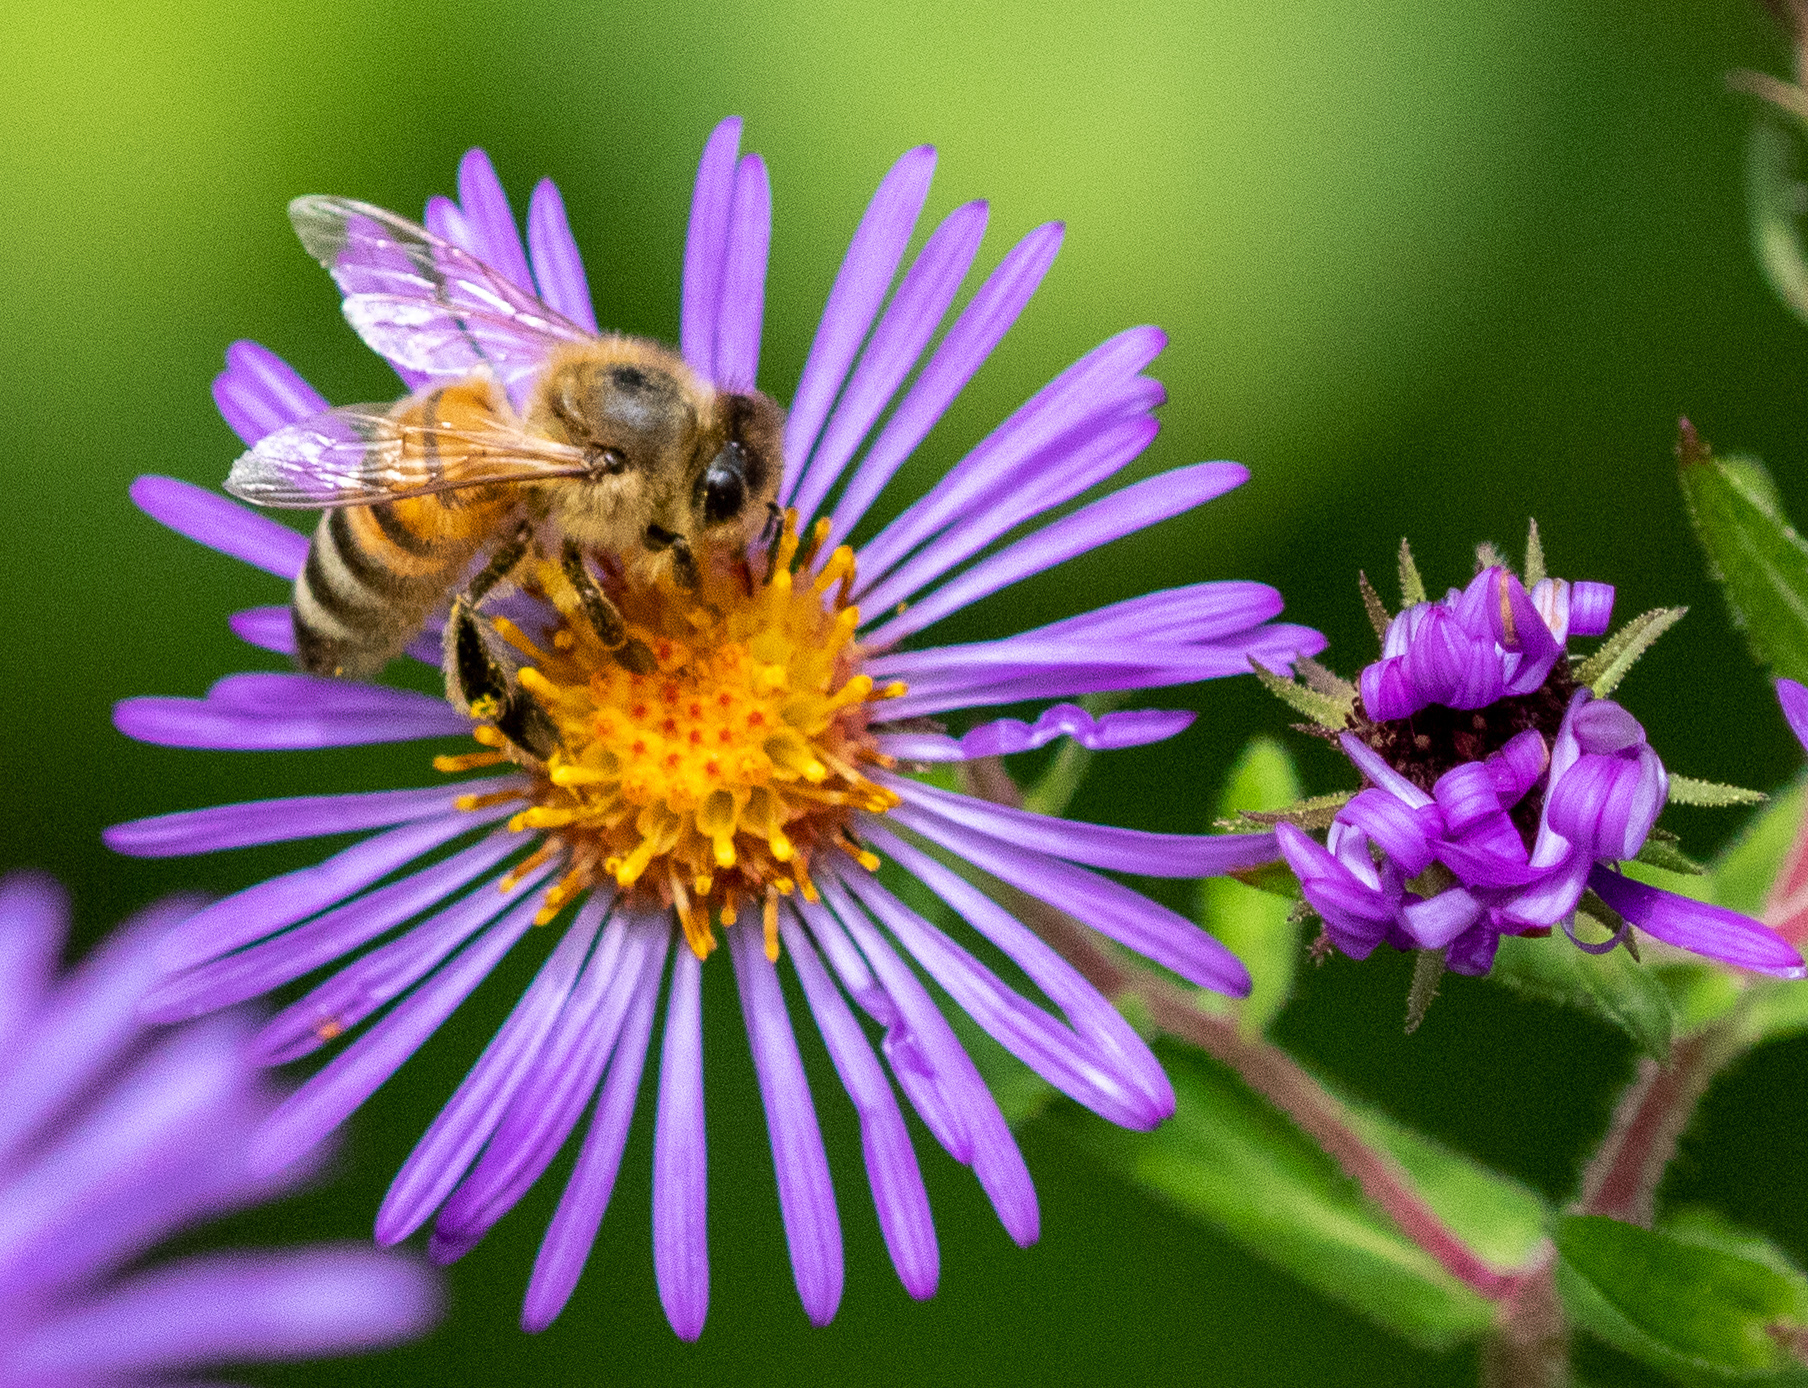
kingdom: Animalia
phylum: Arthropoda
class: Insecta
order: Hymenoptera
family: Apidae
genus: Apis
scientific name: Apis mellifera
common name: Honey bee
